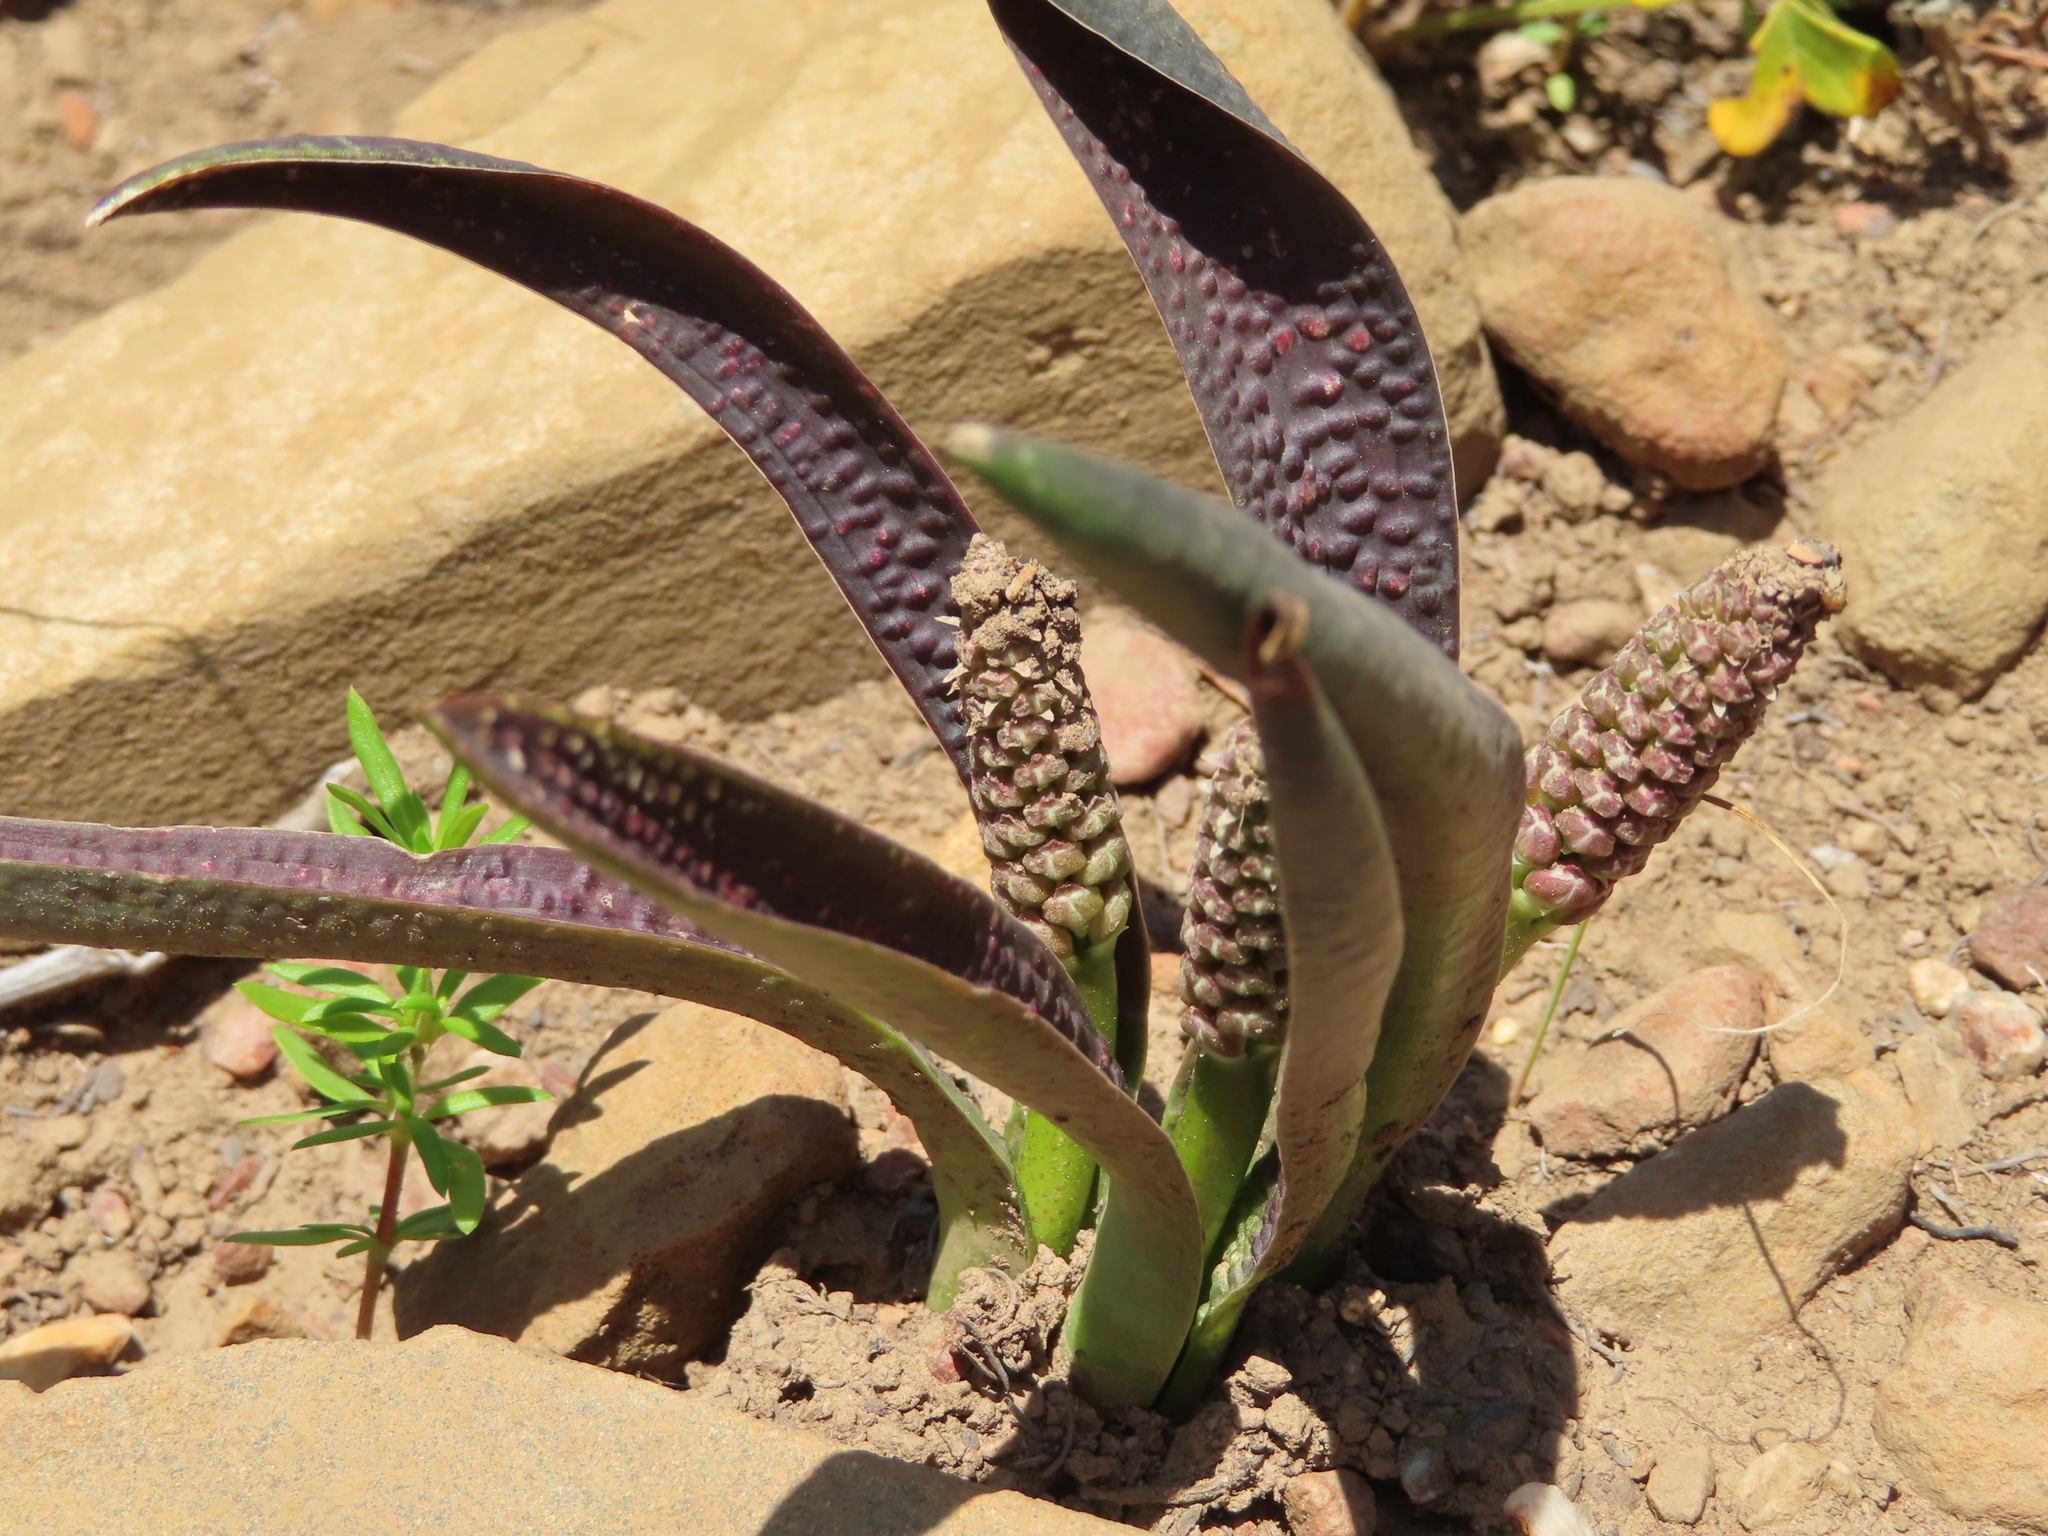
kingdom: Plantae
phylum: Tracheophyta
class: Liliopsida
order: Asparagales
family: Asparagaceae
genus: Lachenalia
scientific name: Lachenalia pallida
